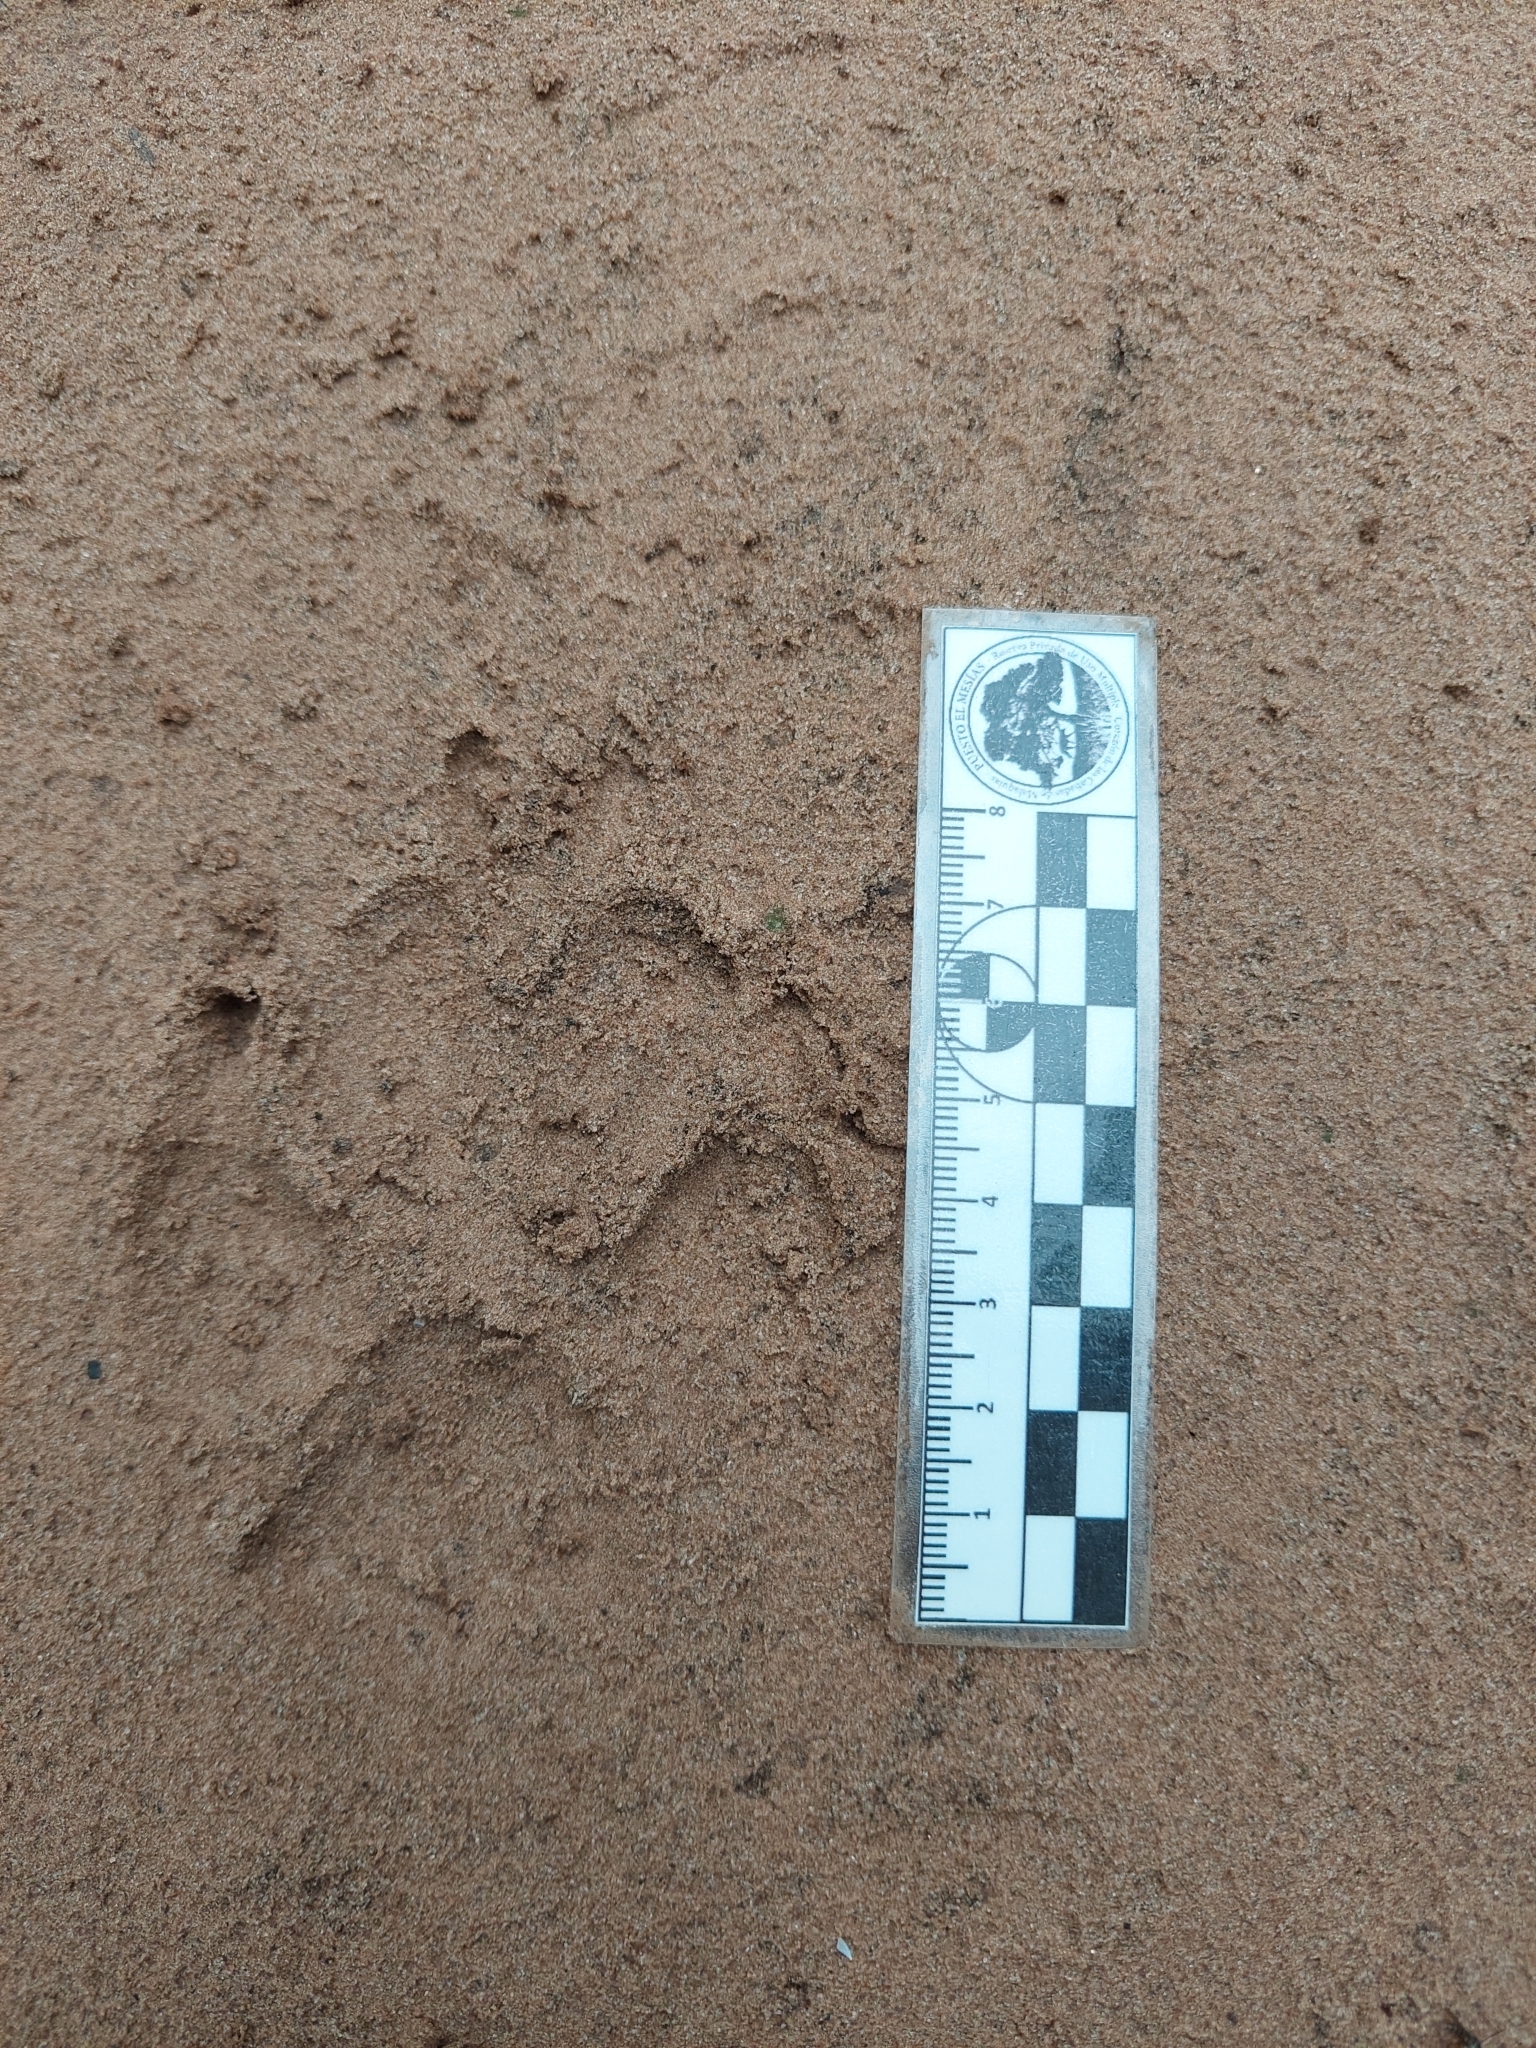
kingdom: Animalia
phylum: Chordata
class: Mammalia
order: Carnivora
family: Canidae
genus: Chrysocyon
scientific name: Chrysocyon brachyurus
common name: Maned wolf
